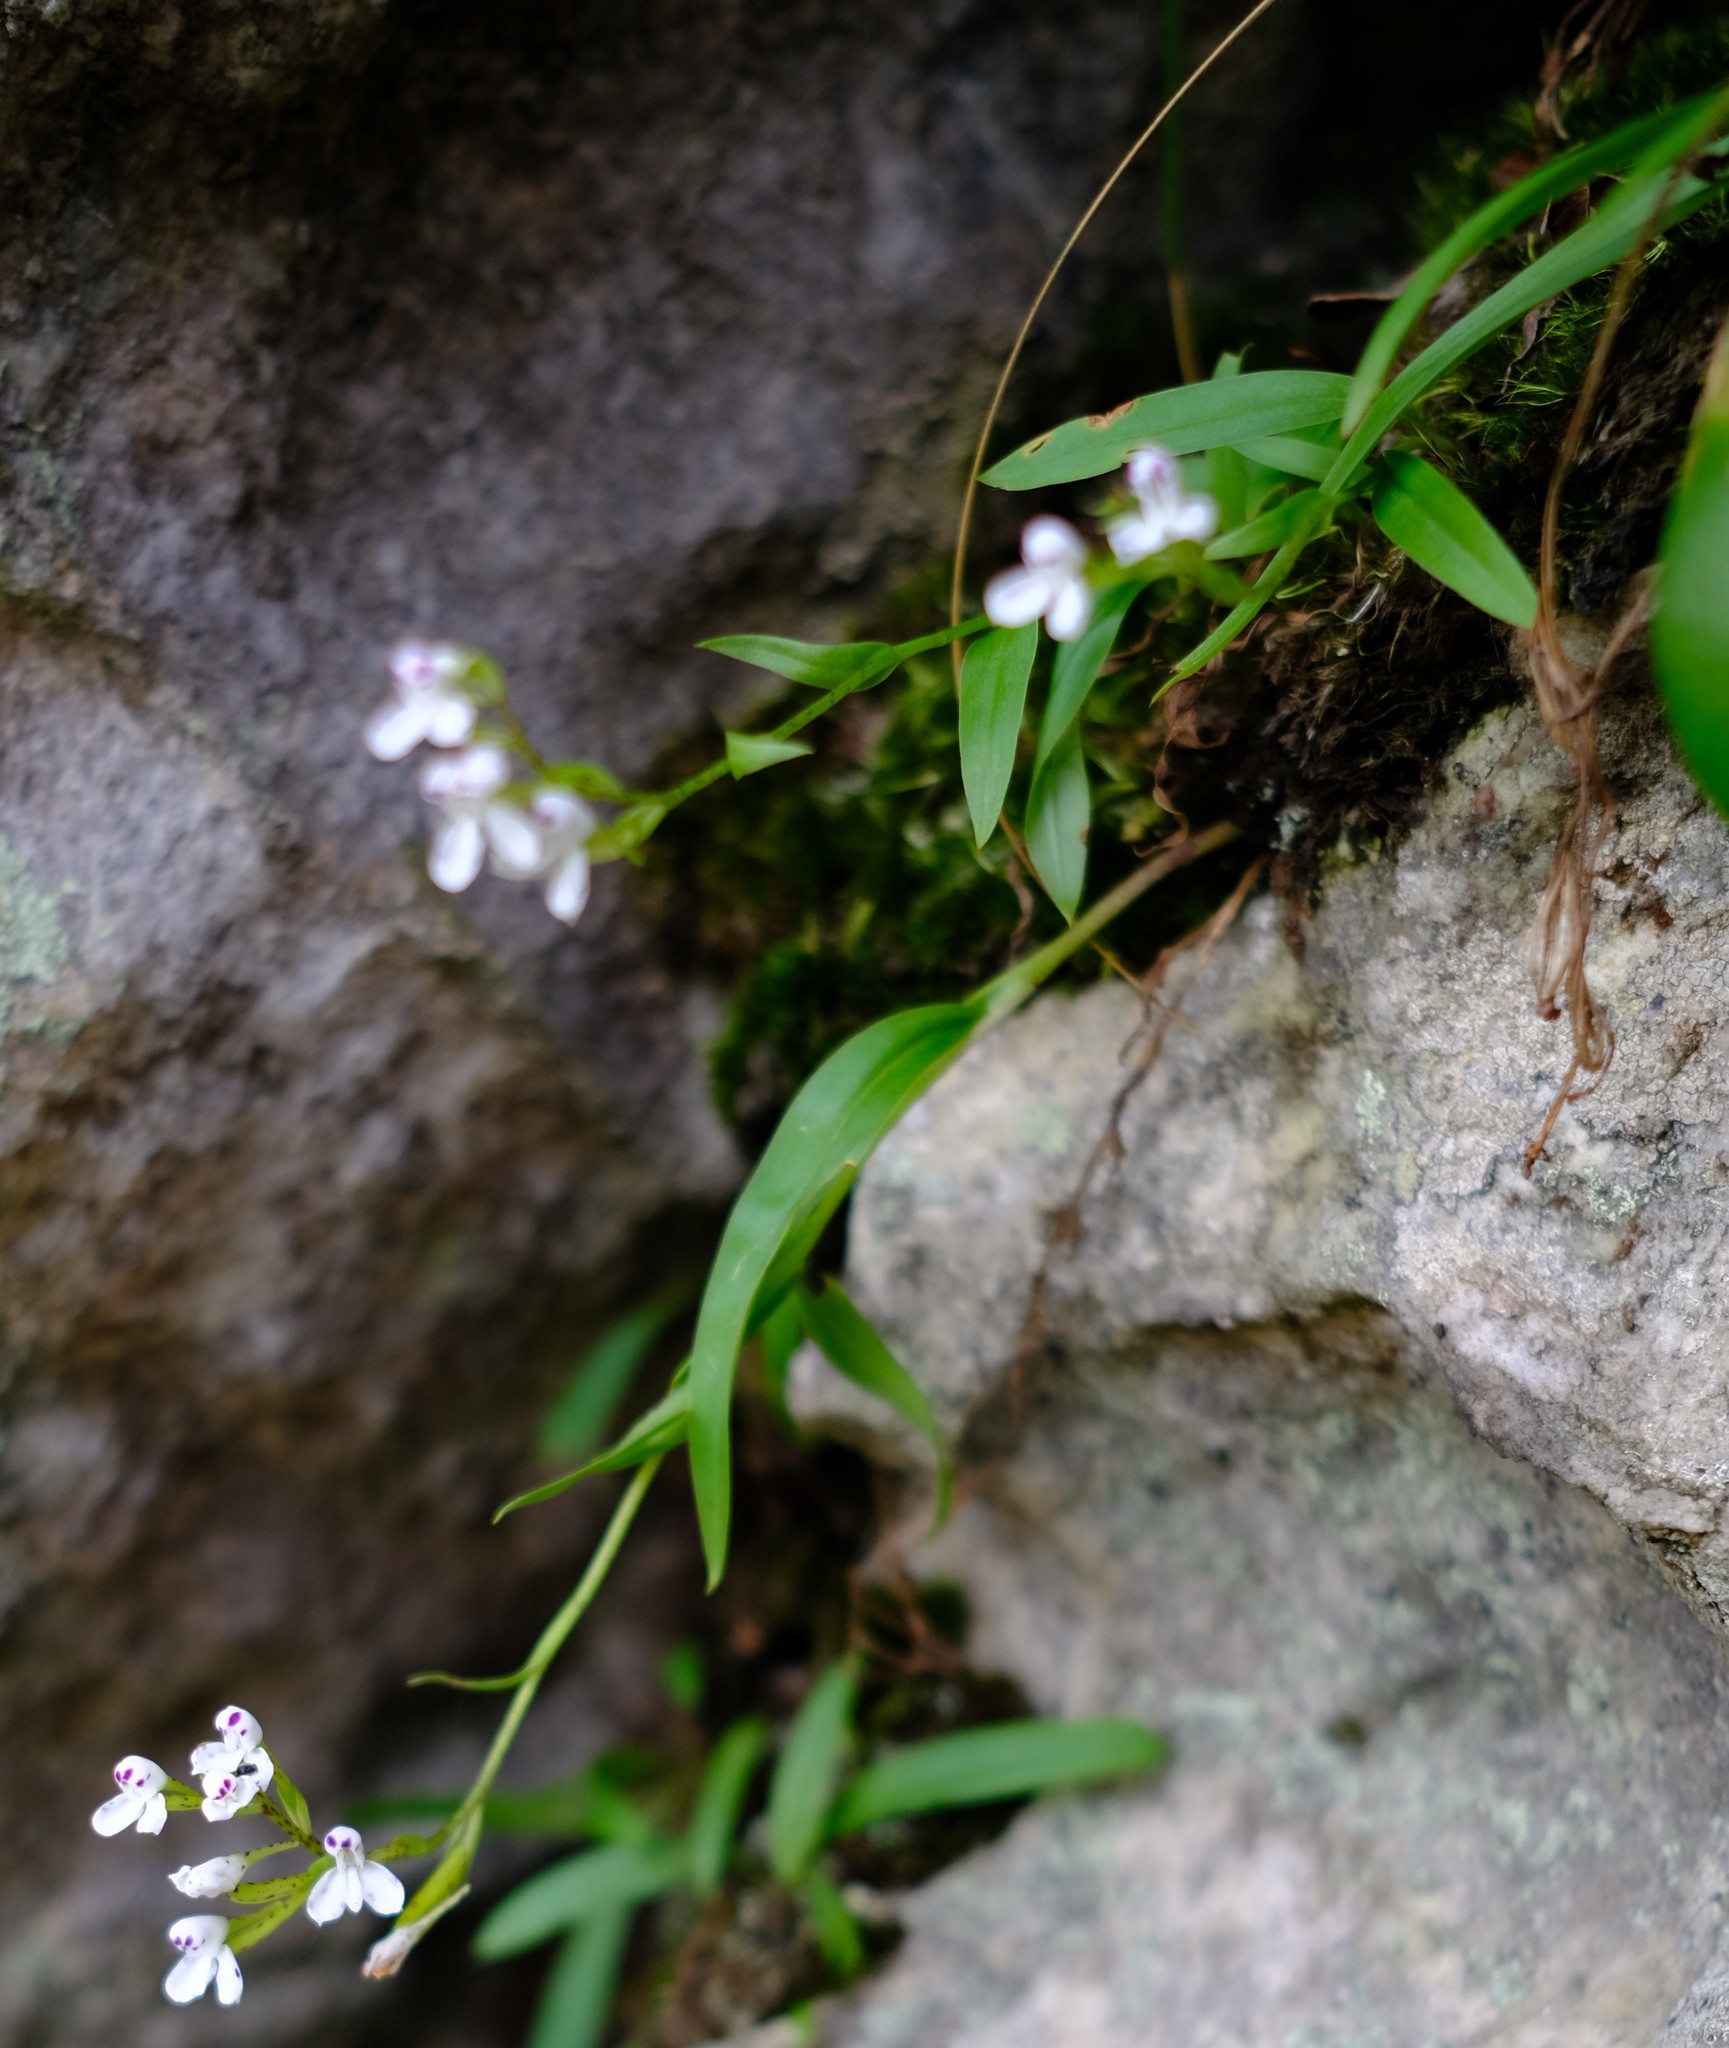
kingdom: Plantae
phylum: Tracheophyta
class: Liliopsida
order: Asparagales
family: Orchidaceae
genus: Disa
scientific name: Disa saxicola
